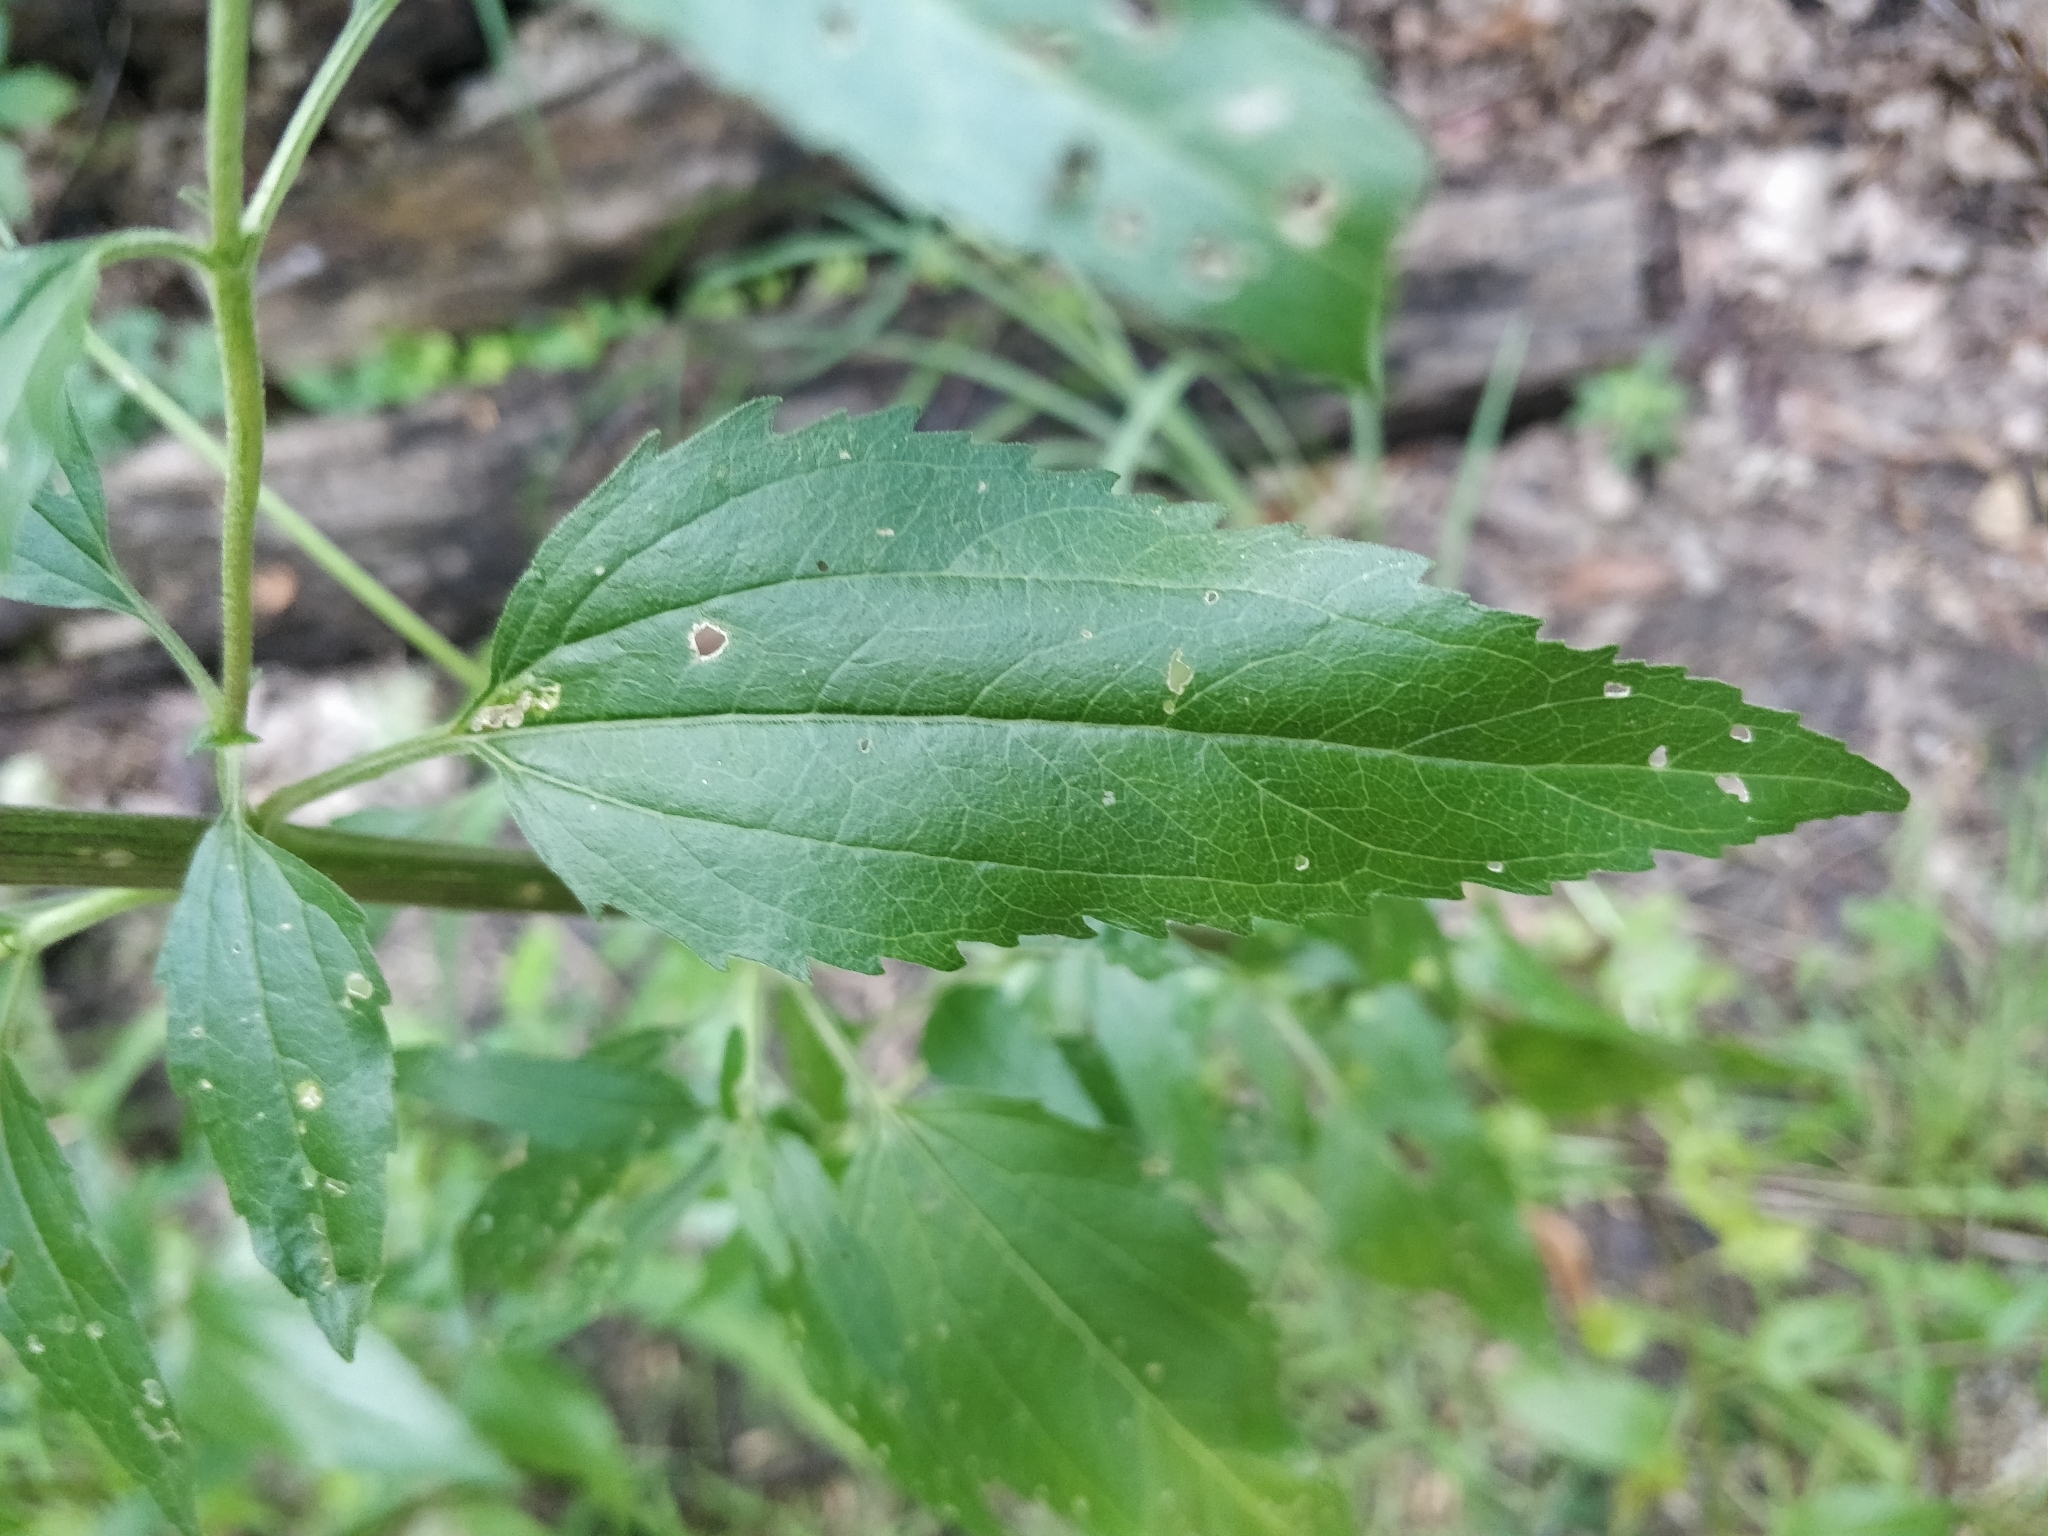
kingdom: Plantae
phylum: Tracheophyta
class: Magnoliopsida
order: Asterales
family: Asteraceae
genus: Eupatorium
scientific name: Eupatorium serotinum
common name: Late boneset
